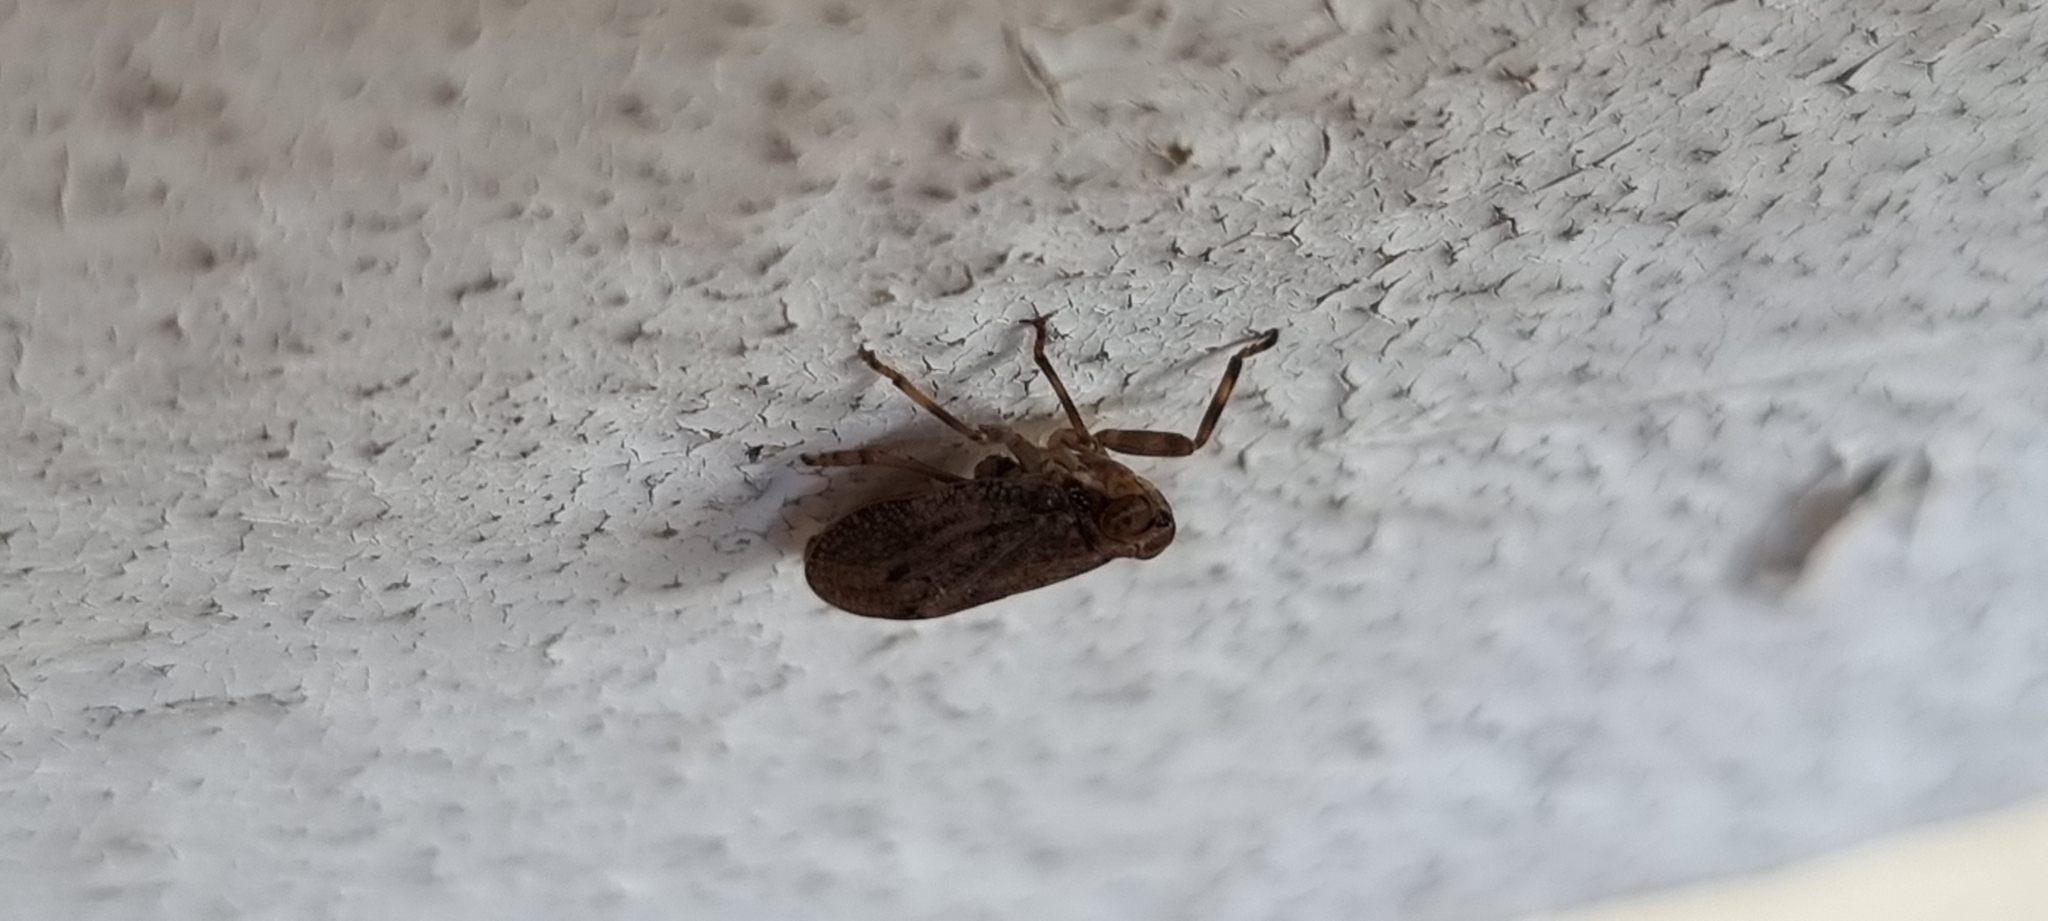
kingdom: Animalia
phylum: Arthropoda
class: Insecta
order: Hemiptera
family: Issidae
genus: Issus
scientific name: Issus coleoptratus
